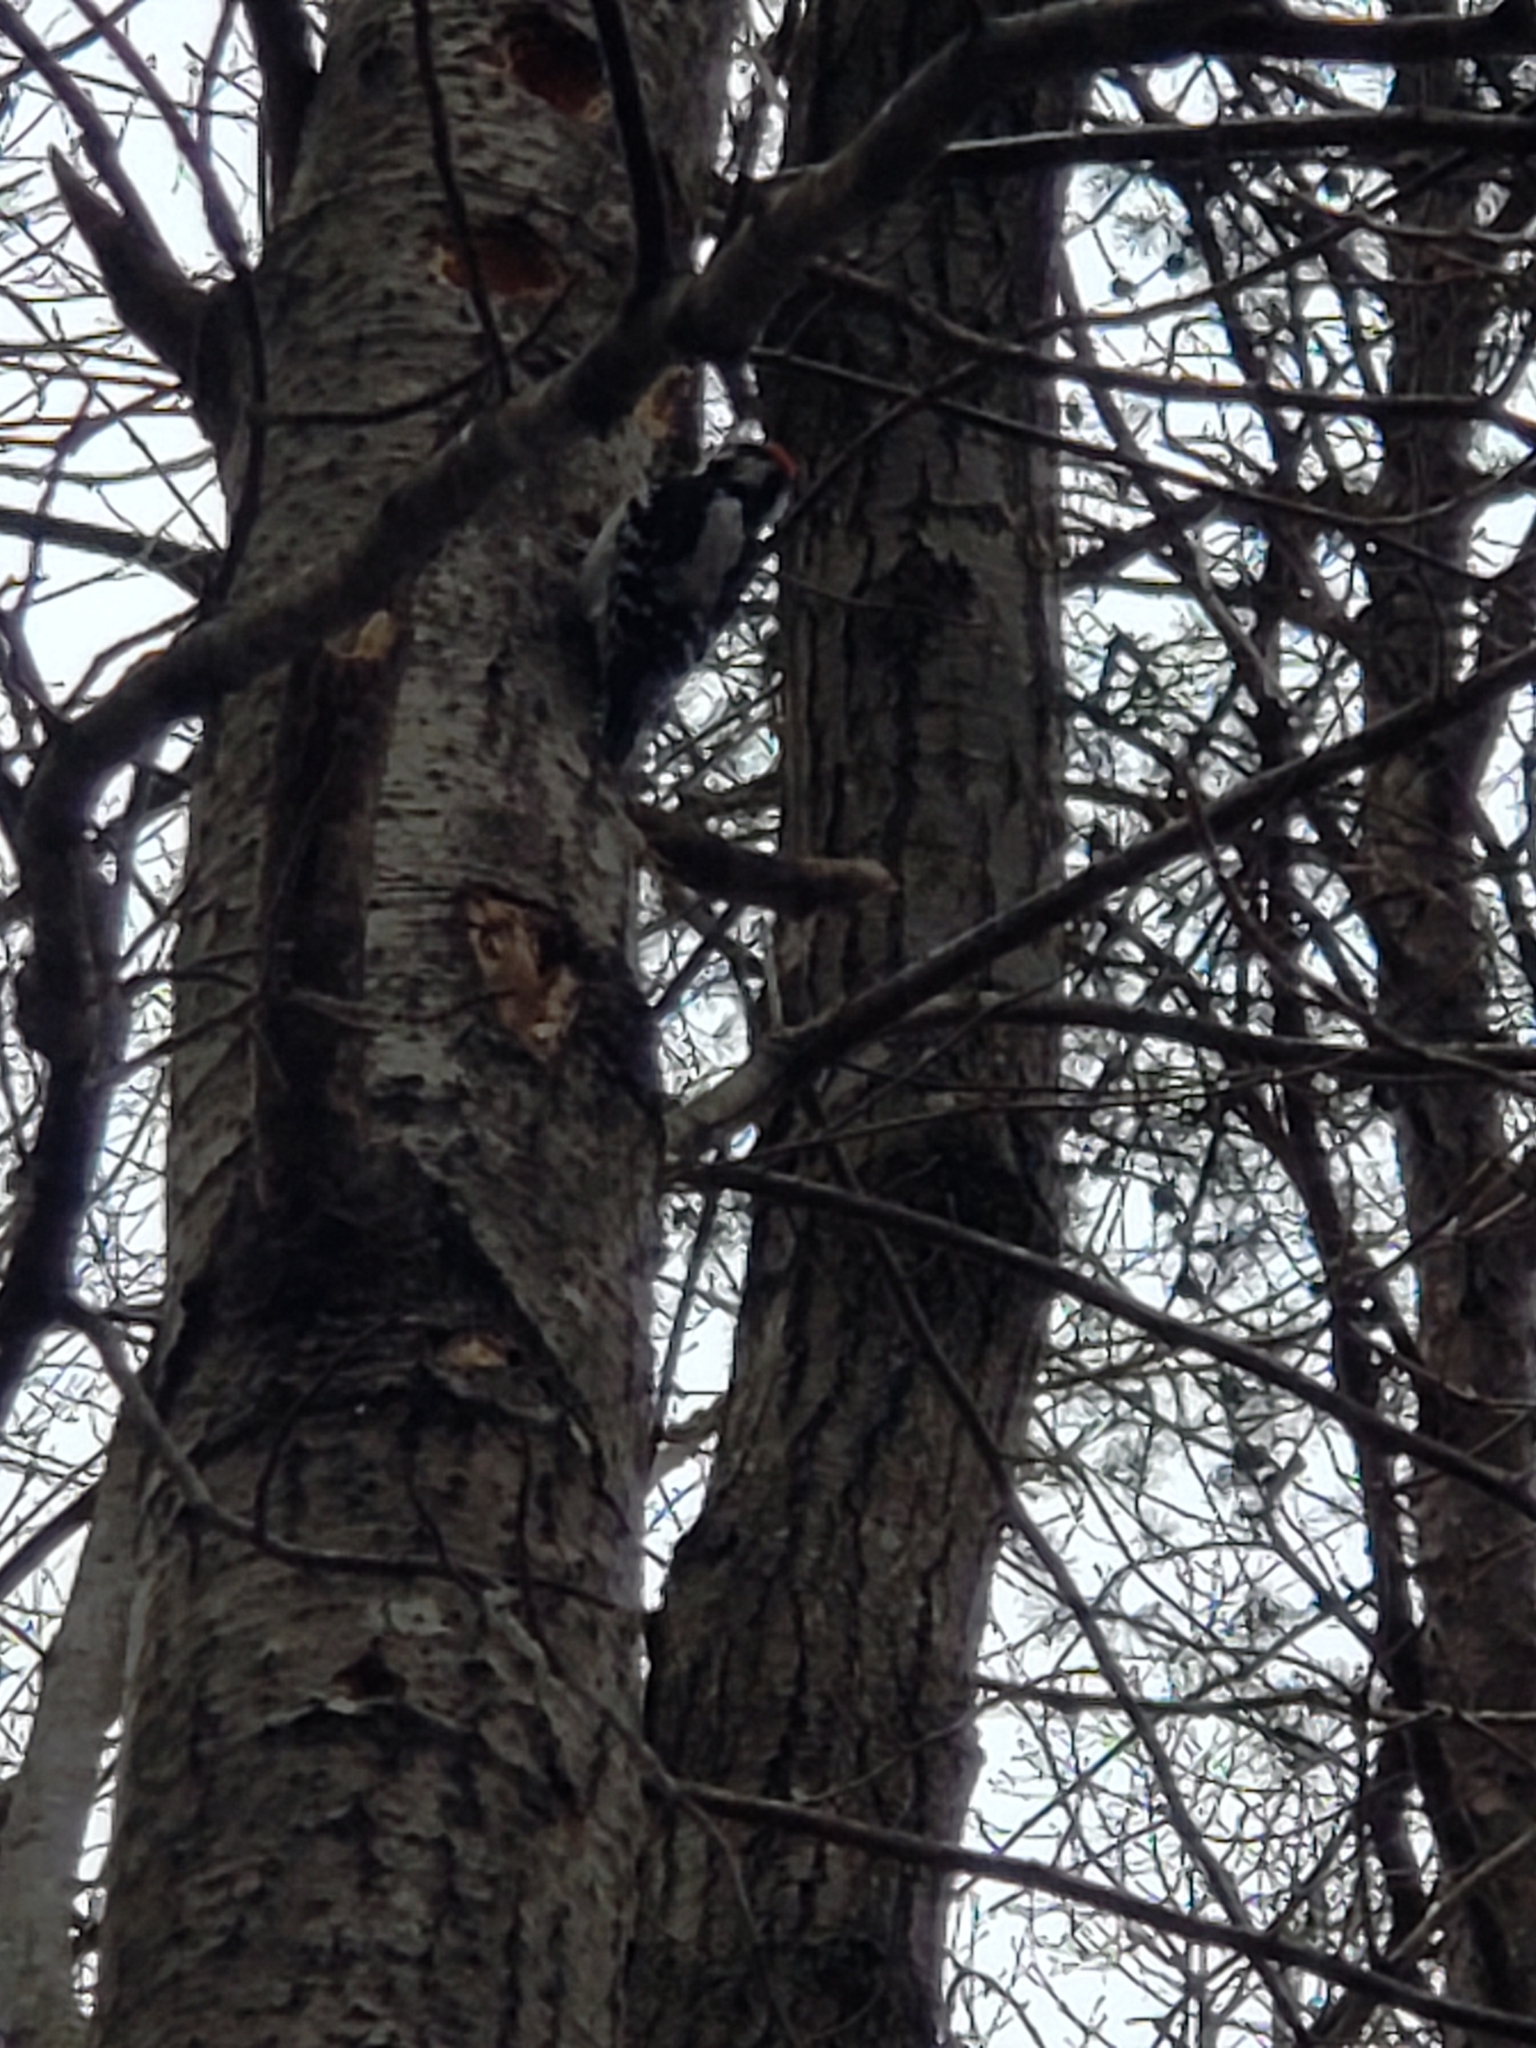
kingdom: Animalia
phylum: Chordata
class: Aves
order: Piciformes
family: Picidae
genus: Dryobates
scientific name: Dryobates pubescens
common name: Downy woodpecker
